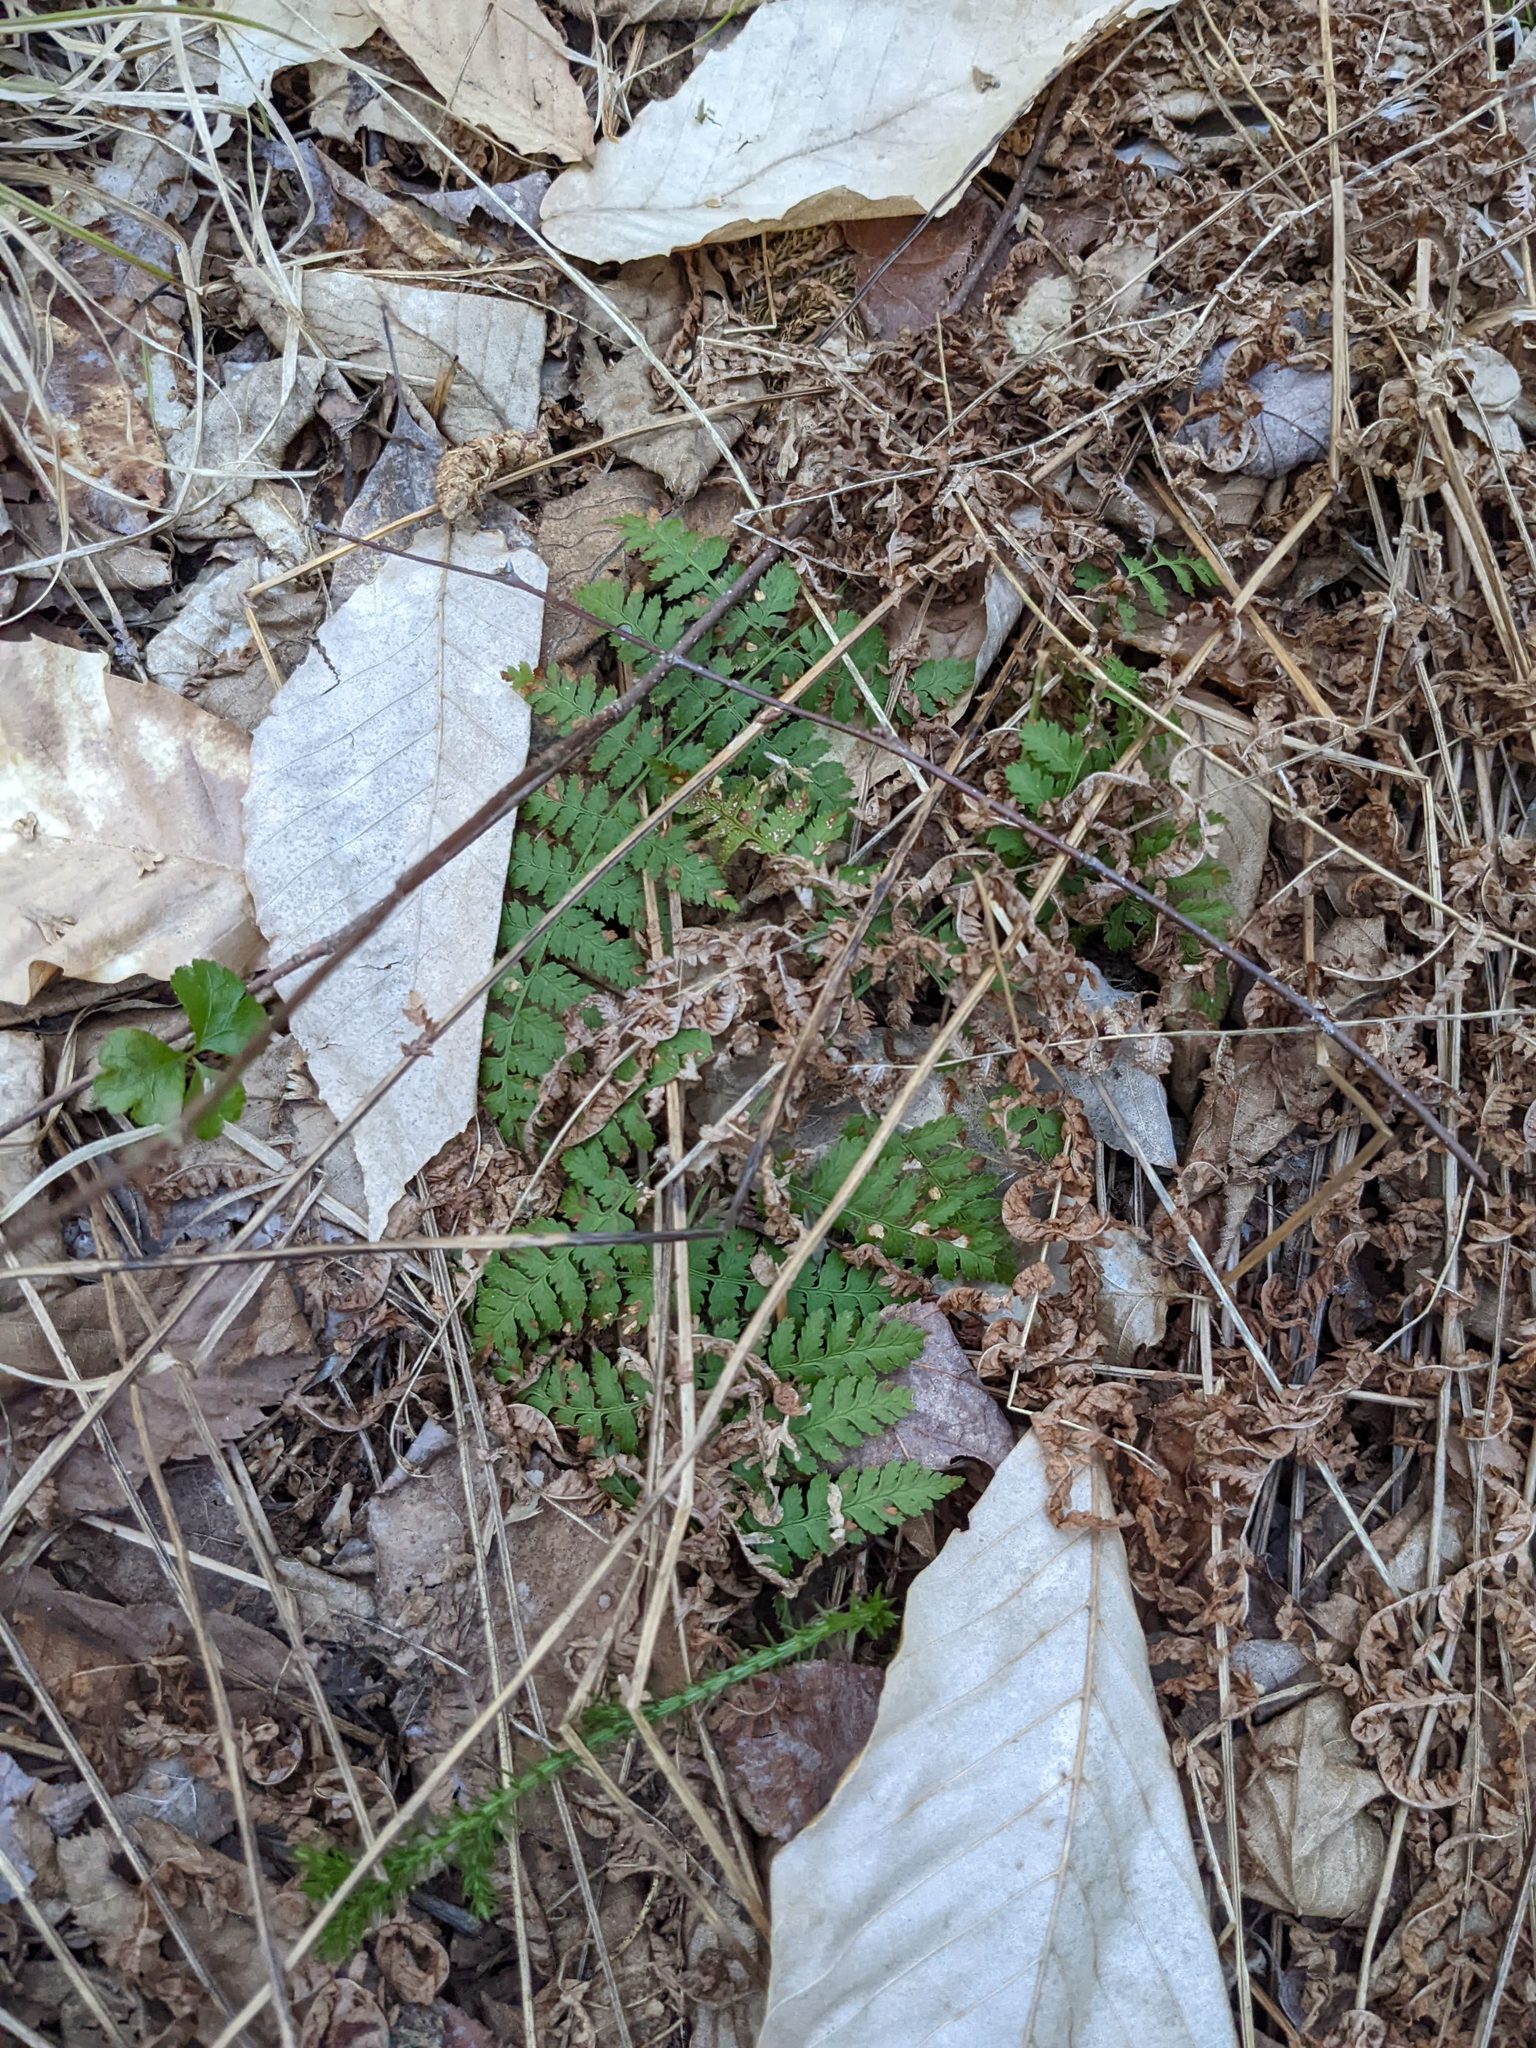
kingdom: Plantae
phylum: Tracheophyta
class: Polypodiopsida
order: Polypodiales
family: Dryopteridaceae
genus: Dryopteris
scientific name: Dryopteris intermedia
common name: Evergreen wood fern
